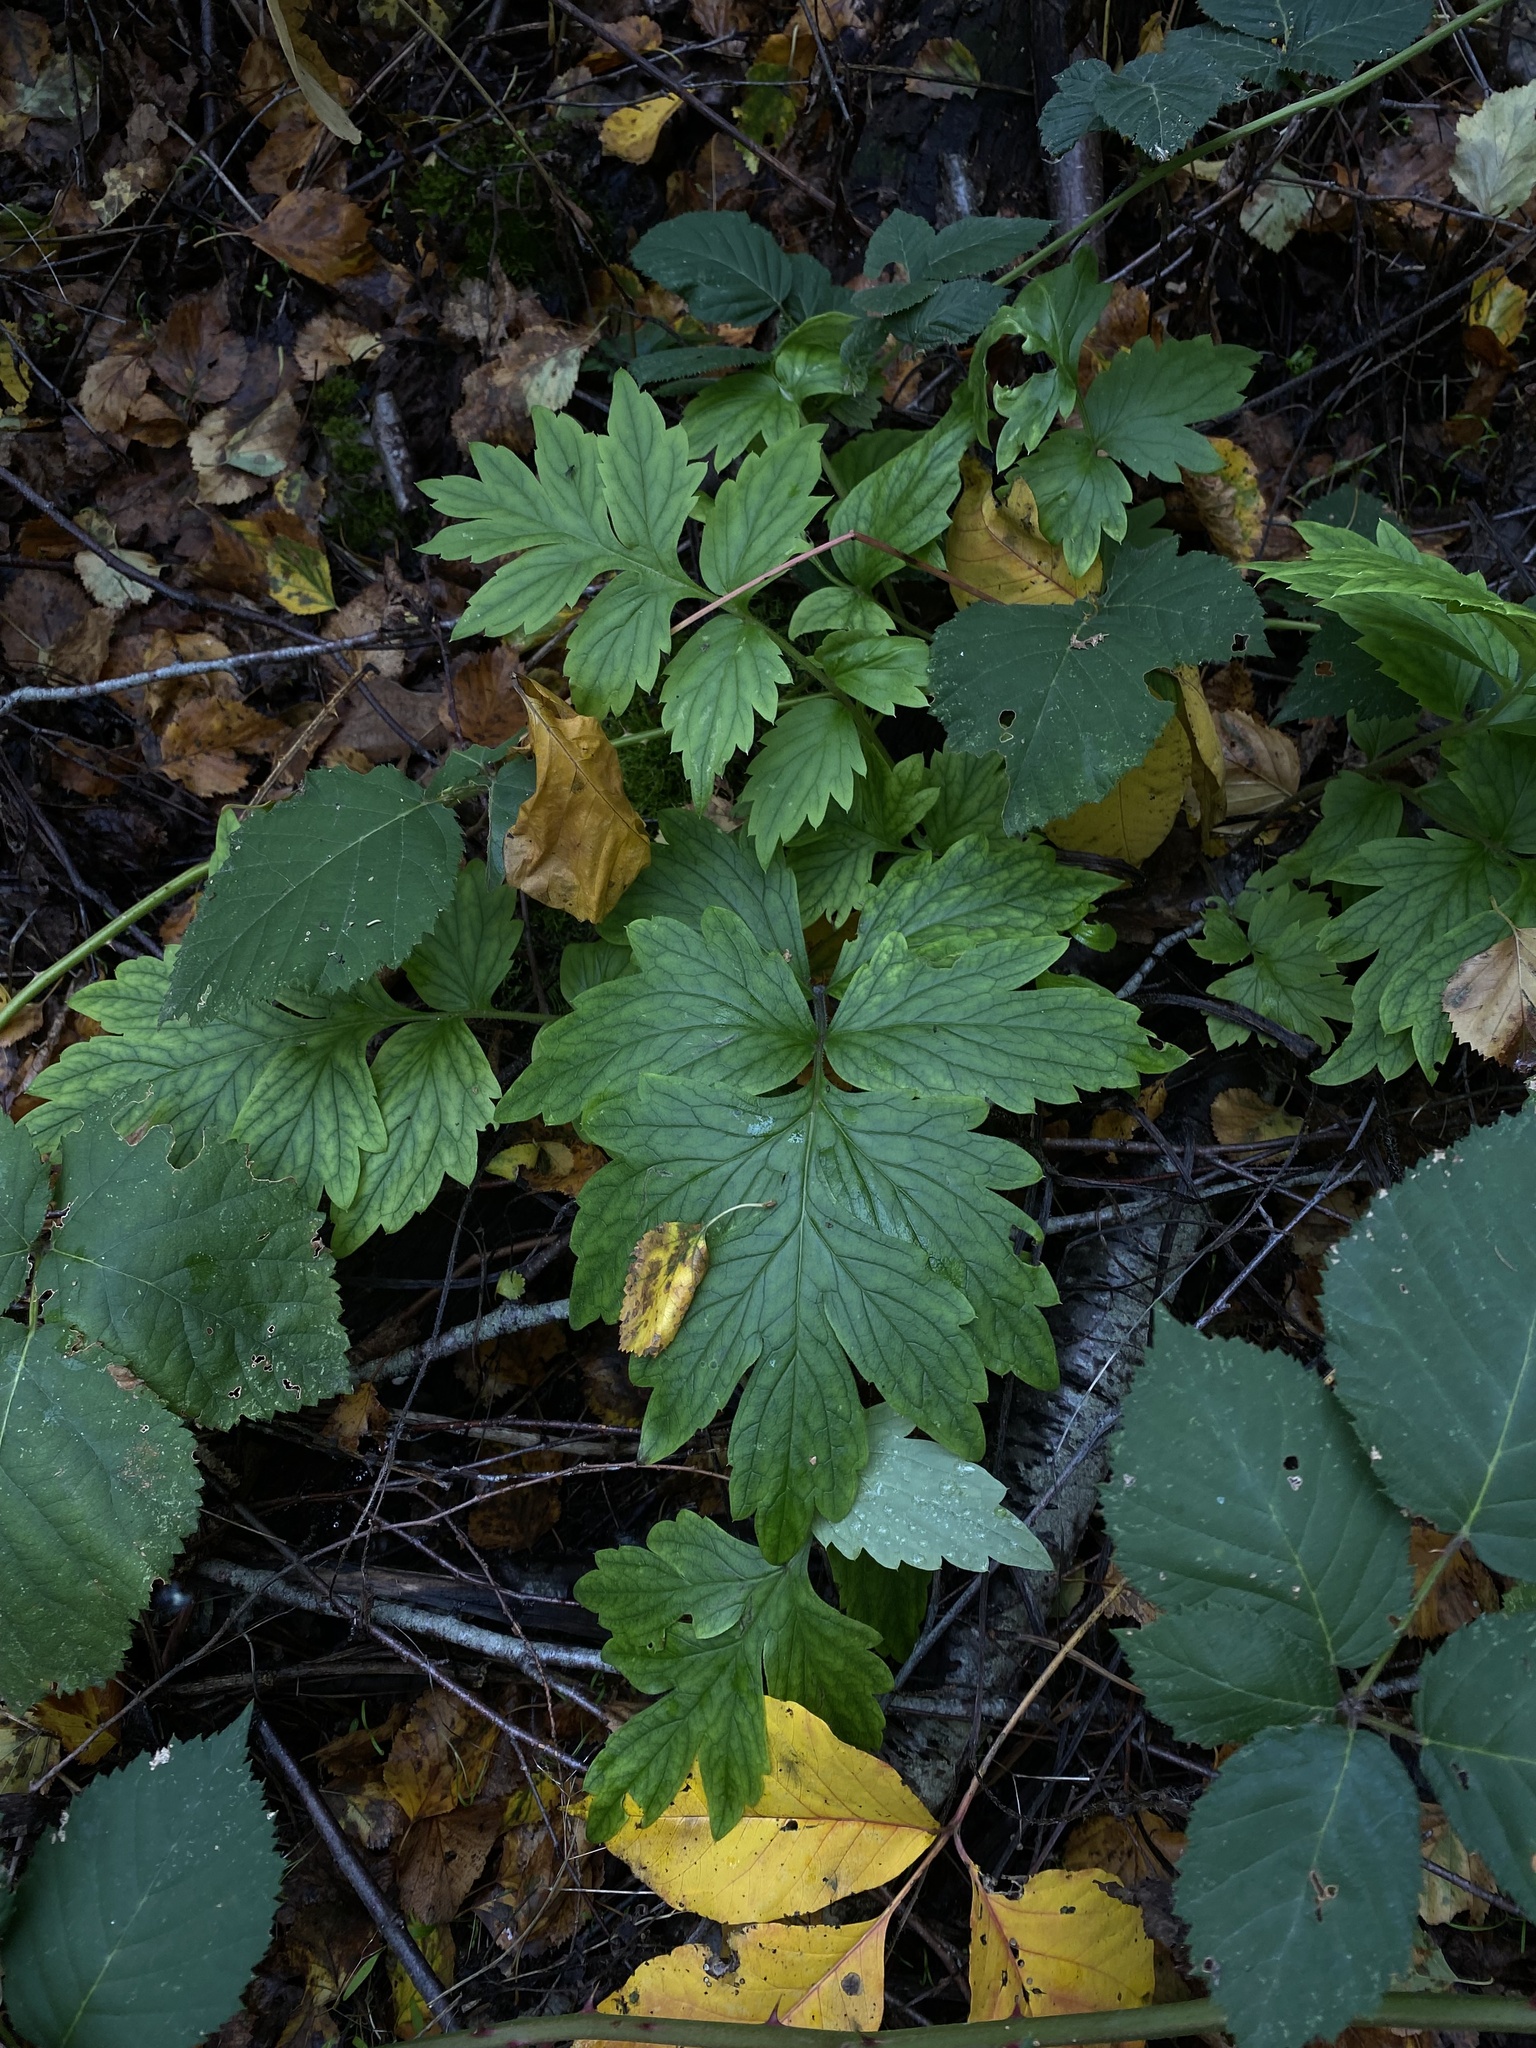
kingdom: Plantae
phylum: Tracheophyta
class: Magnoliopsida
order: Boraginales
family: Hydrophyllaceae
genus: Hydrophyllum
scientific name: Hydrophyllum fendleri
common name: Fendler's waterleaf
